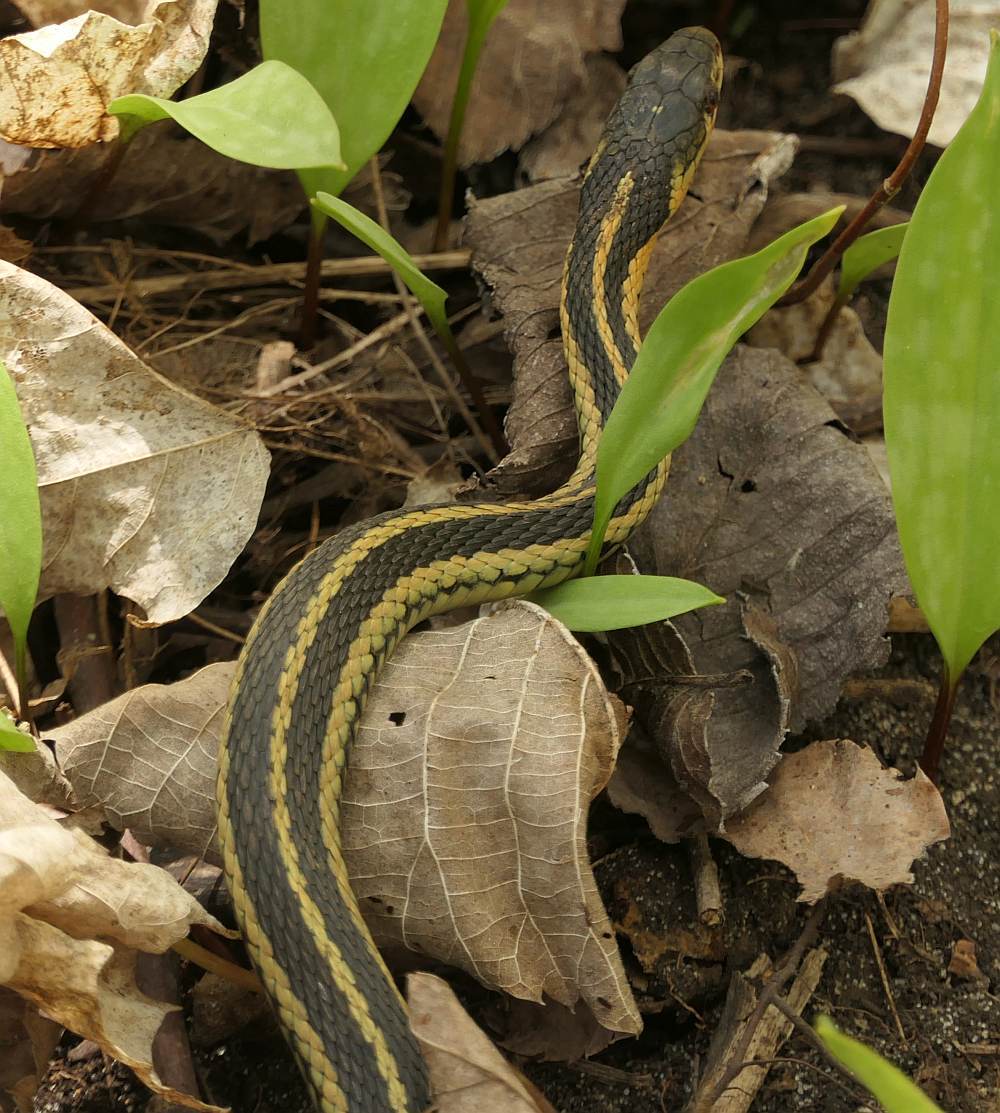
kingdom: Animalia
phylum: Chordata
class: Squamata
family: Colubridae
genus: Thamnophis
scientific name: Thamnophis sirtalis
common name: Common garter snake
